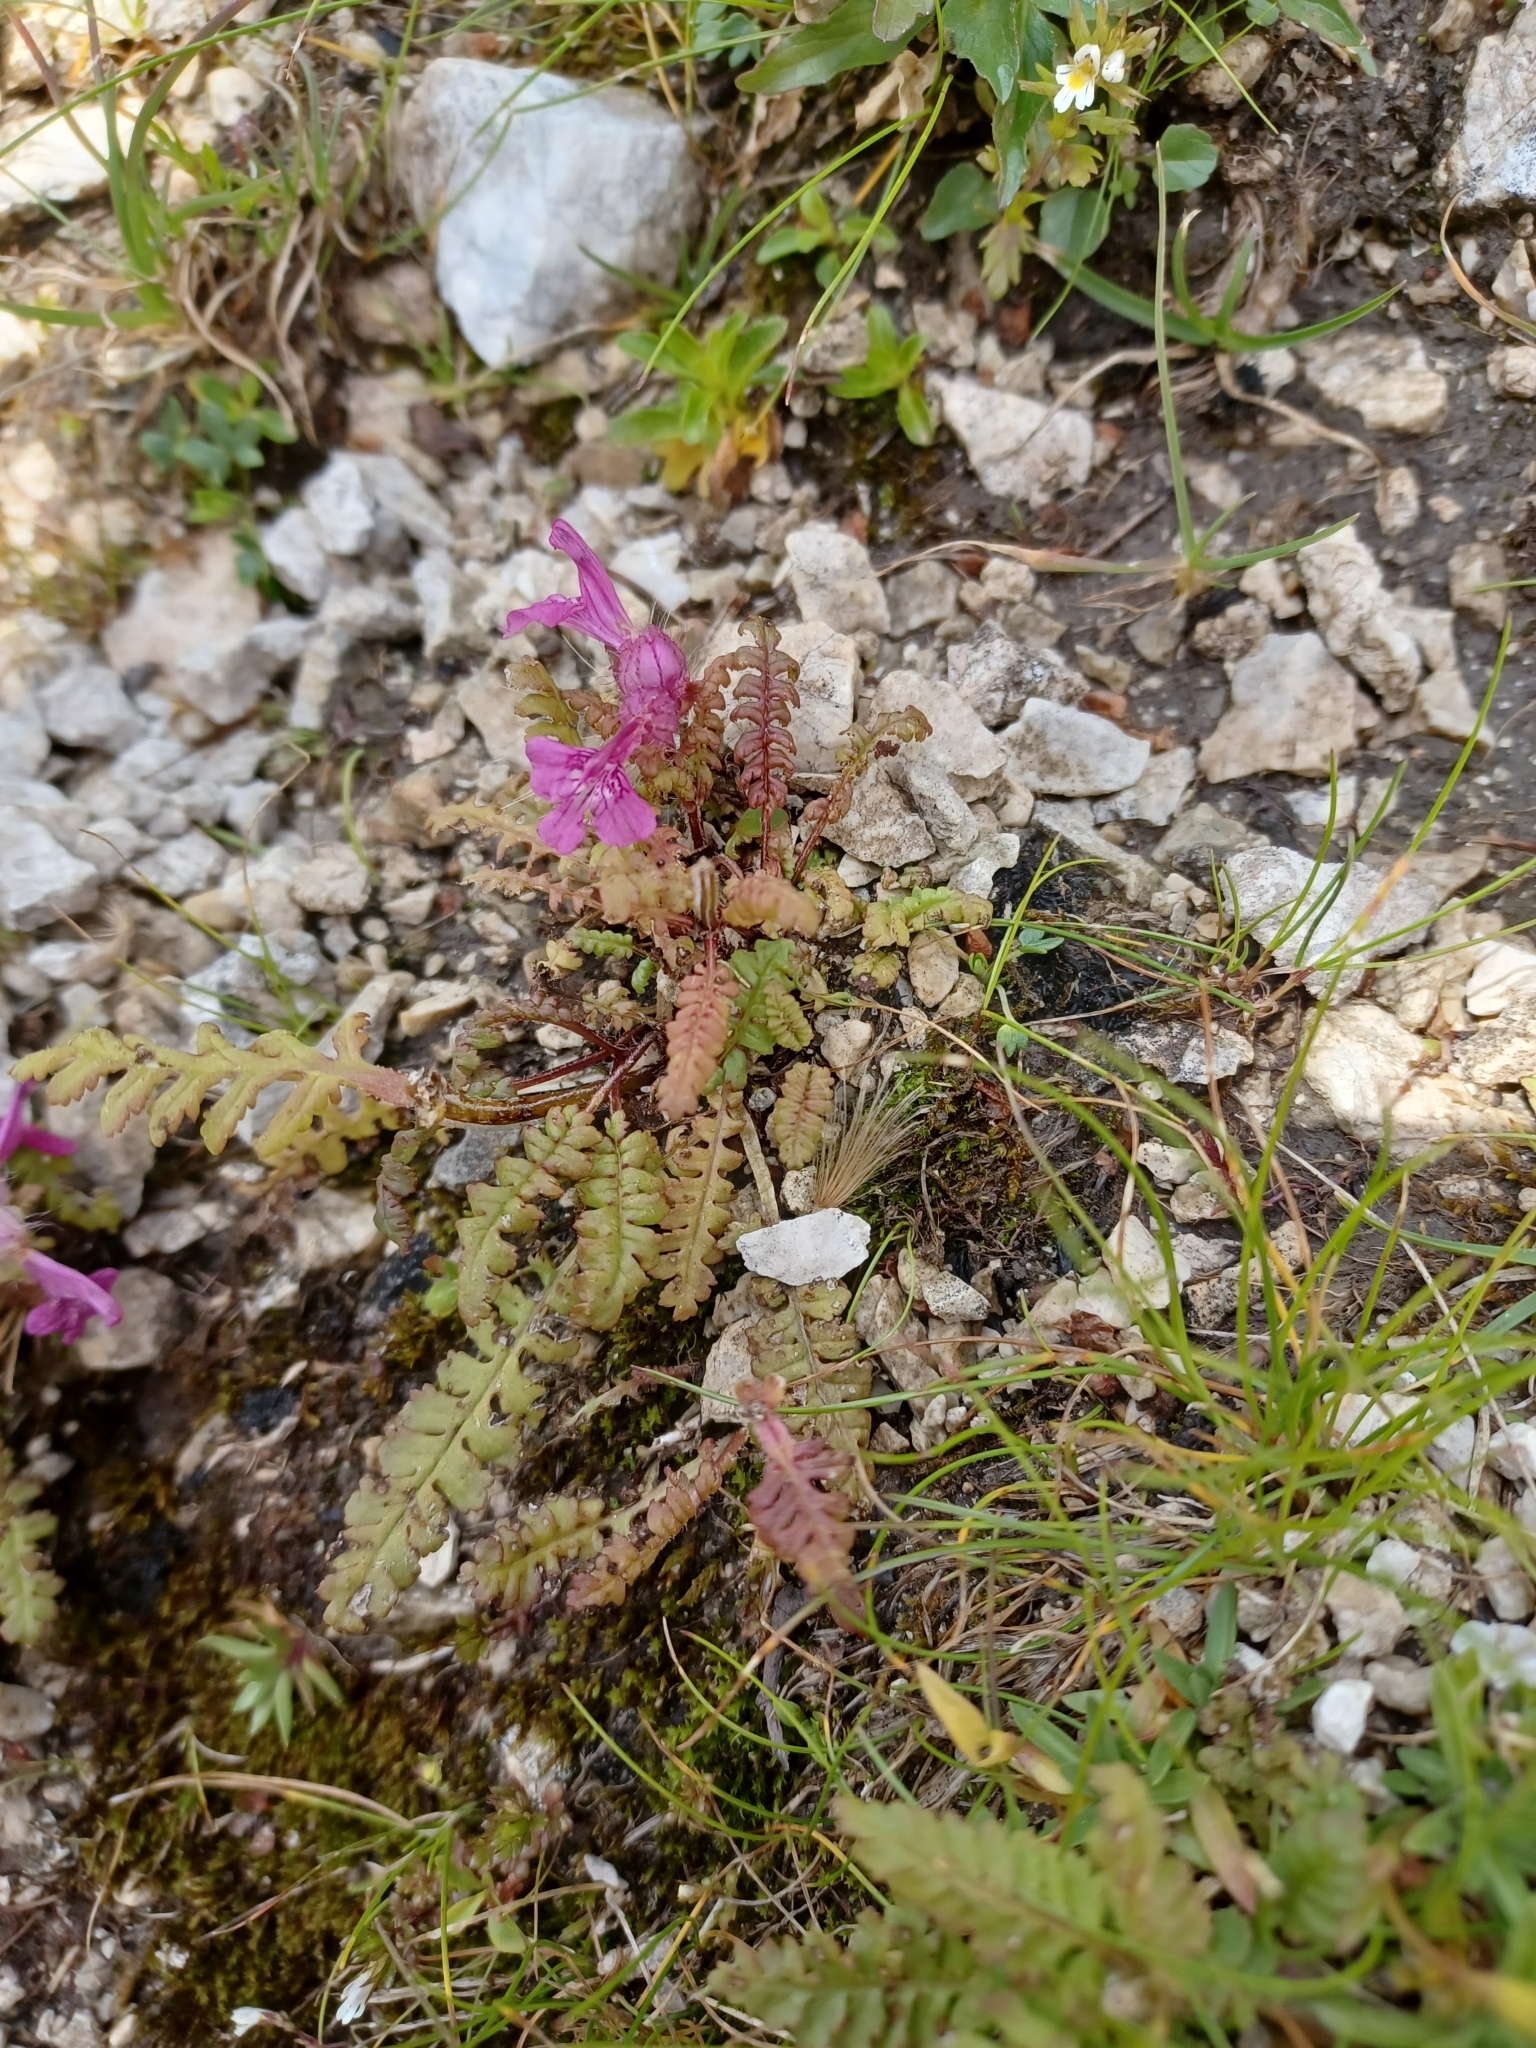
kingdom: Plantae
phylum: Tracheophyta
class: Magnoliopsida
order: Lamiales
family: Orobanchaceae
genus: Pedicularis
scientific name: Pedicularis verticillata
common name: Whorled lousewort
